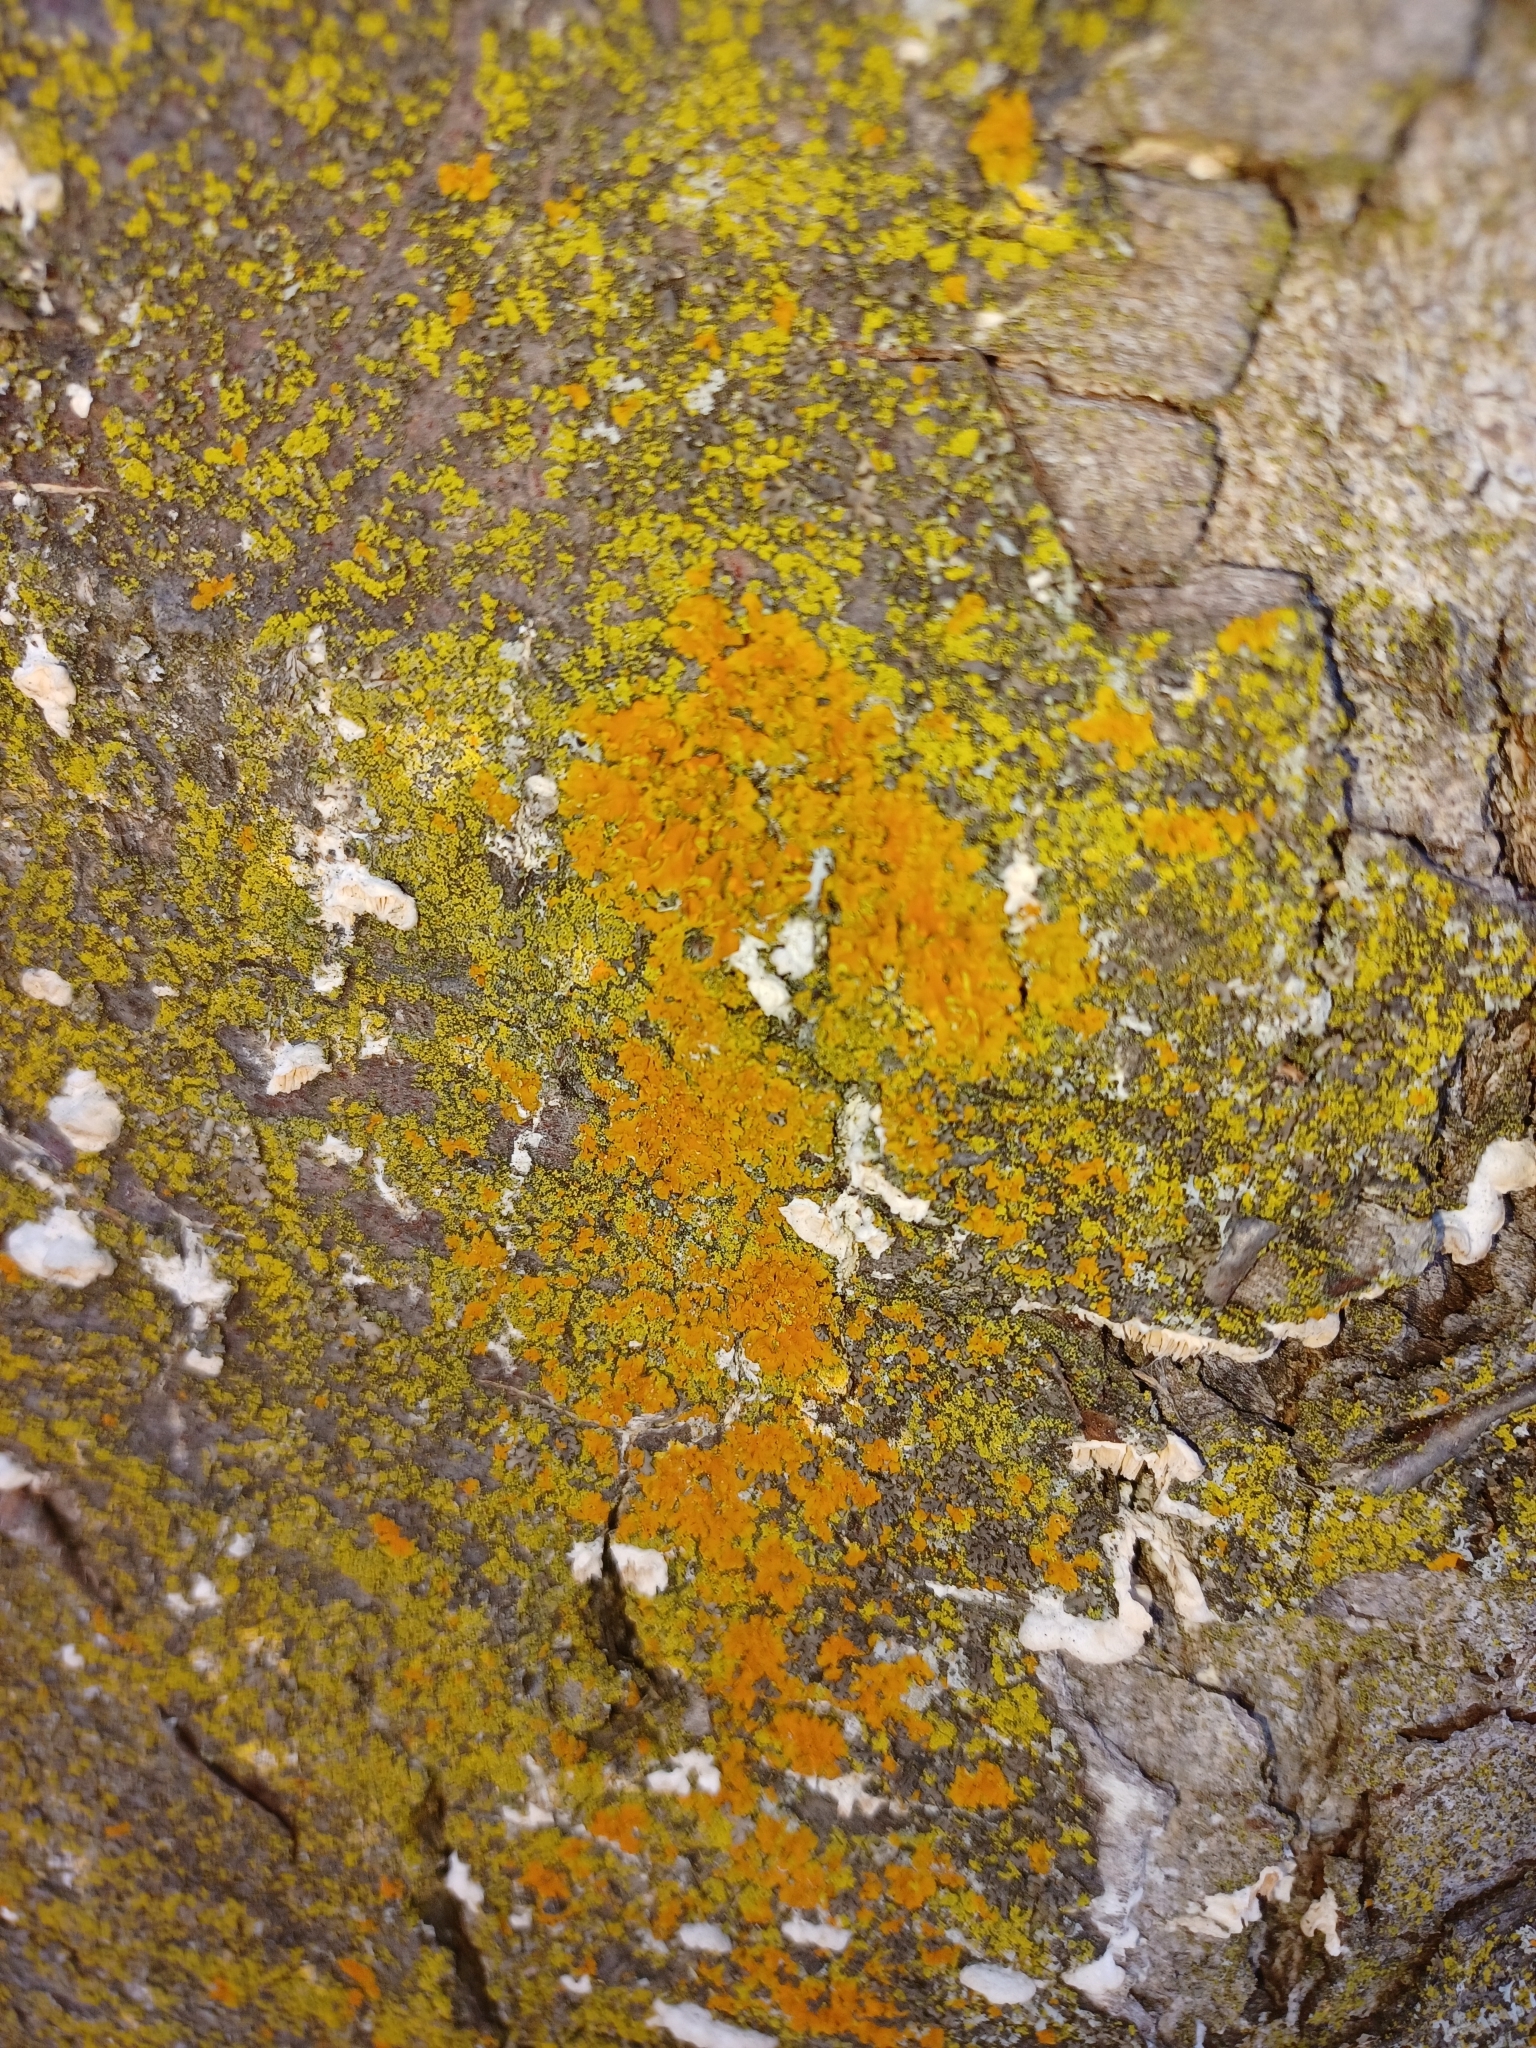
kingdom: Fungi
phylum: Ascomycota
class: Lecanoromycetes
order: Teloschistales
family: Teloschistaceae
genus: Xanthoria
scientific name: Xanthoria parietina
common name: Common orange lichen
